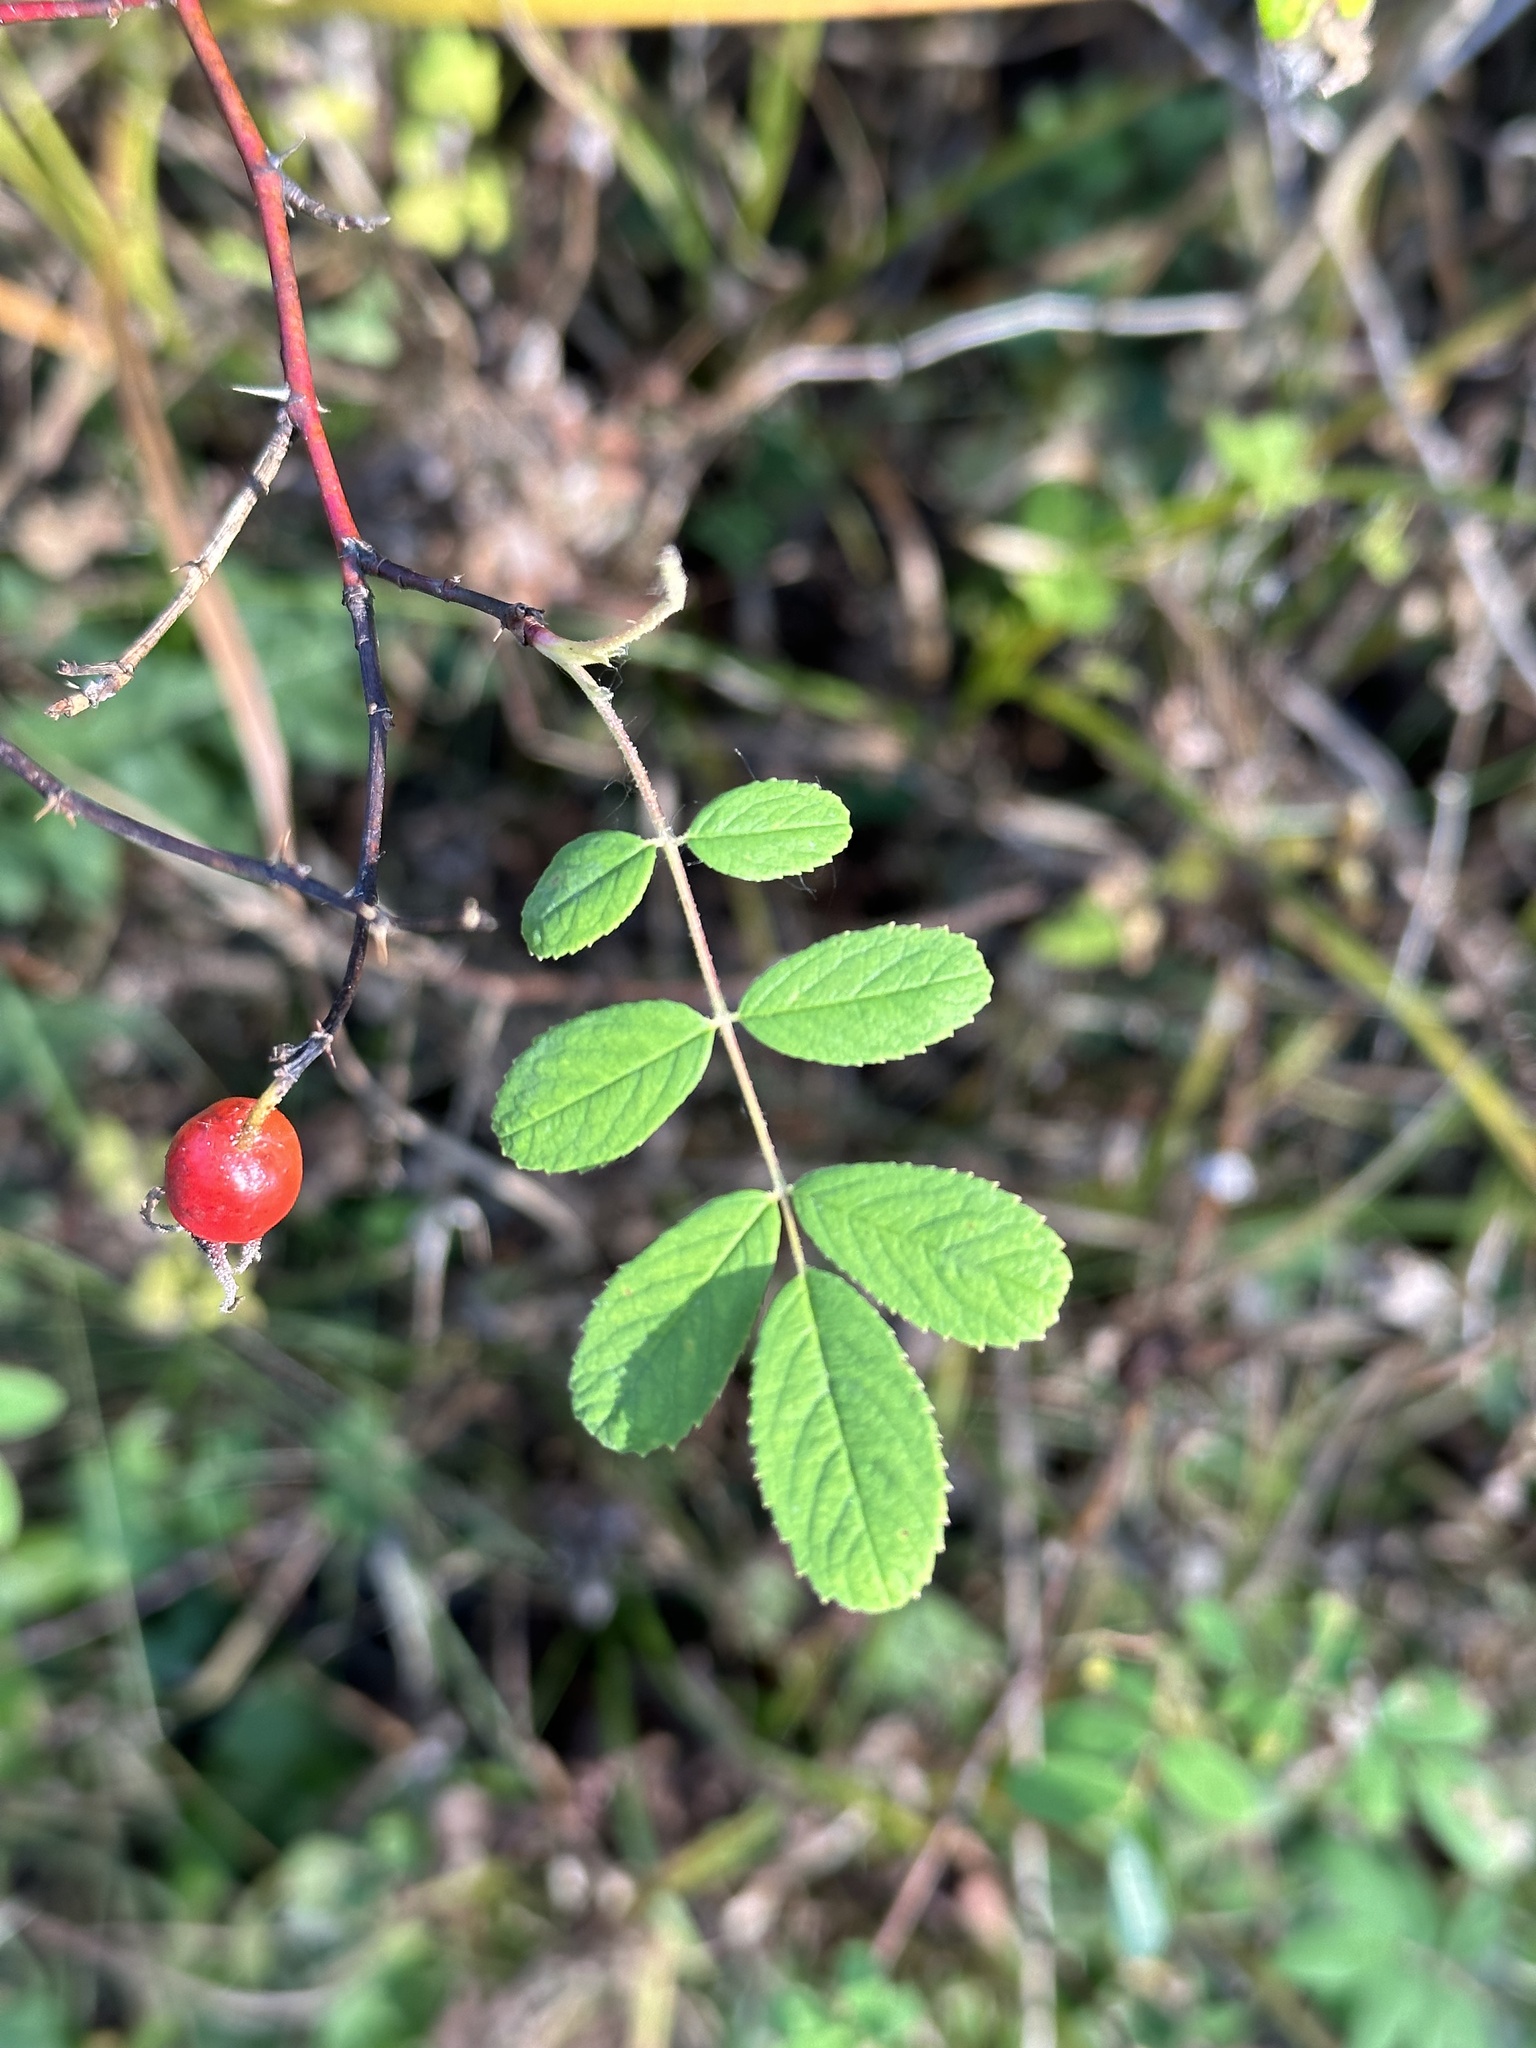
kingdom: Plantae
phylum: Tracheophyta
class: Magnoliopsida
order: Rosales
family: Rosaceae
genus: Rosa
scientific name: Rosa davurica
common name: Amur rose
